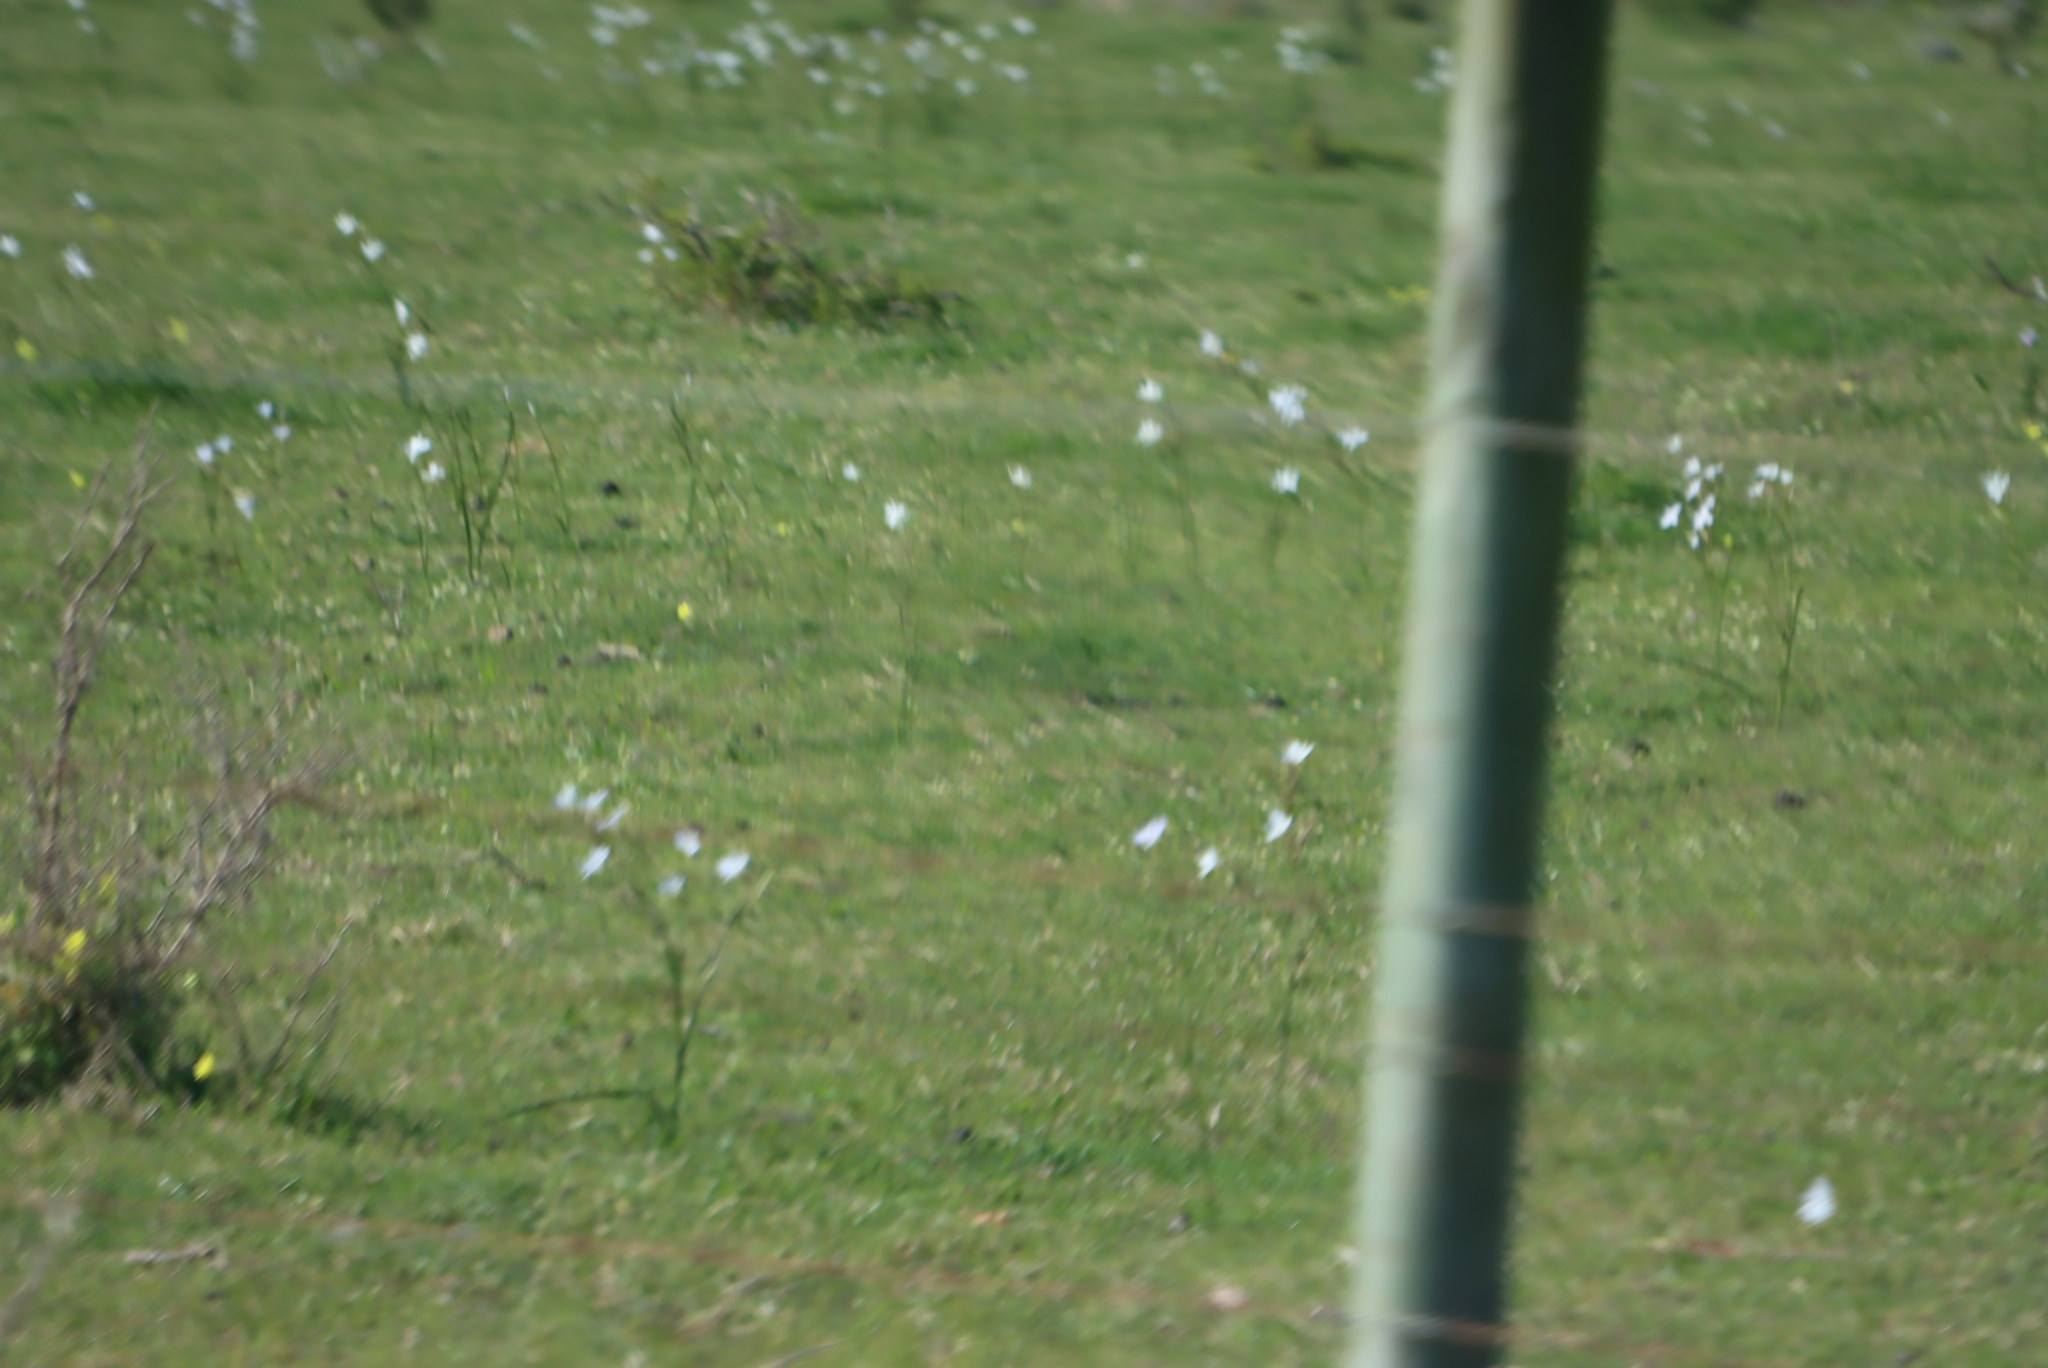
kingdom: Plantae
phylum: Tracheophyta
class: Liliopsida
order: Asparagales
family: Iridaceae
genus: Moraea
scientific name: Moraea polyanthos
